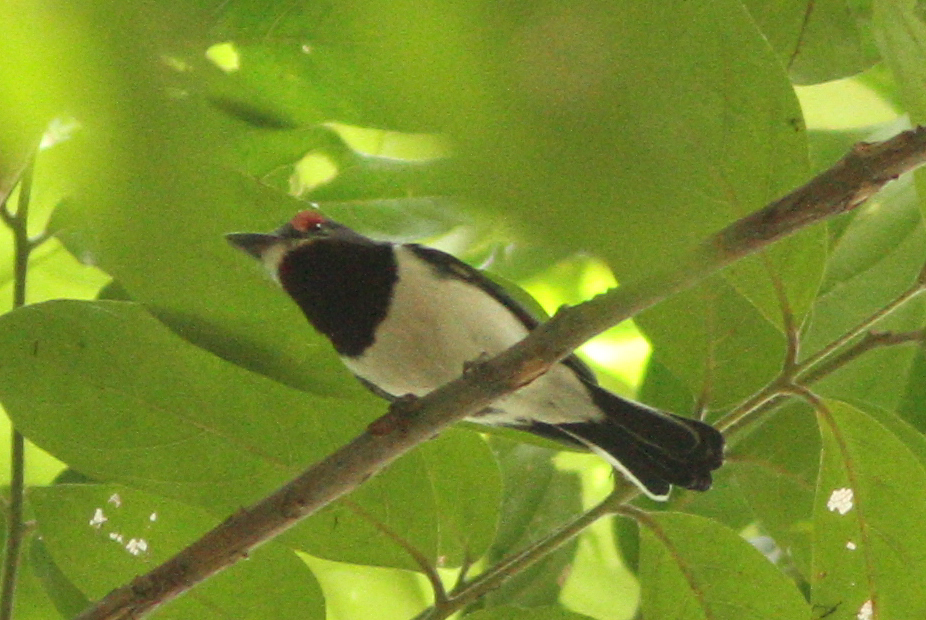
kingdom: Animalia
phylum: Chordata
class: Aves
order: Passeriformes
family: Platysteiridae
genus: Platysteira
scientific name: Platysteira cyanea
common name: Brown-throated wattle-eye
